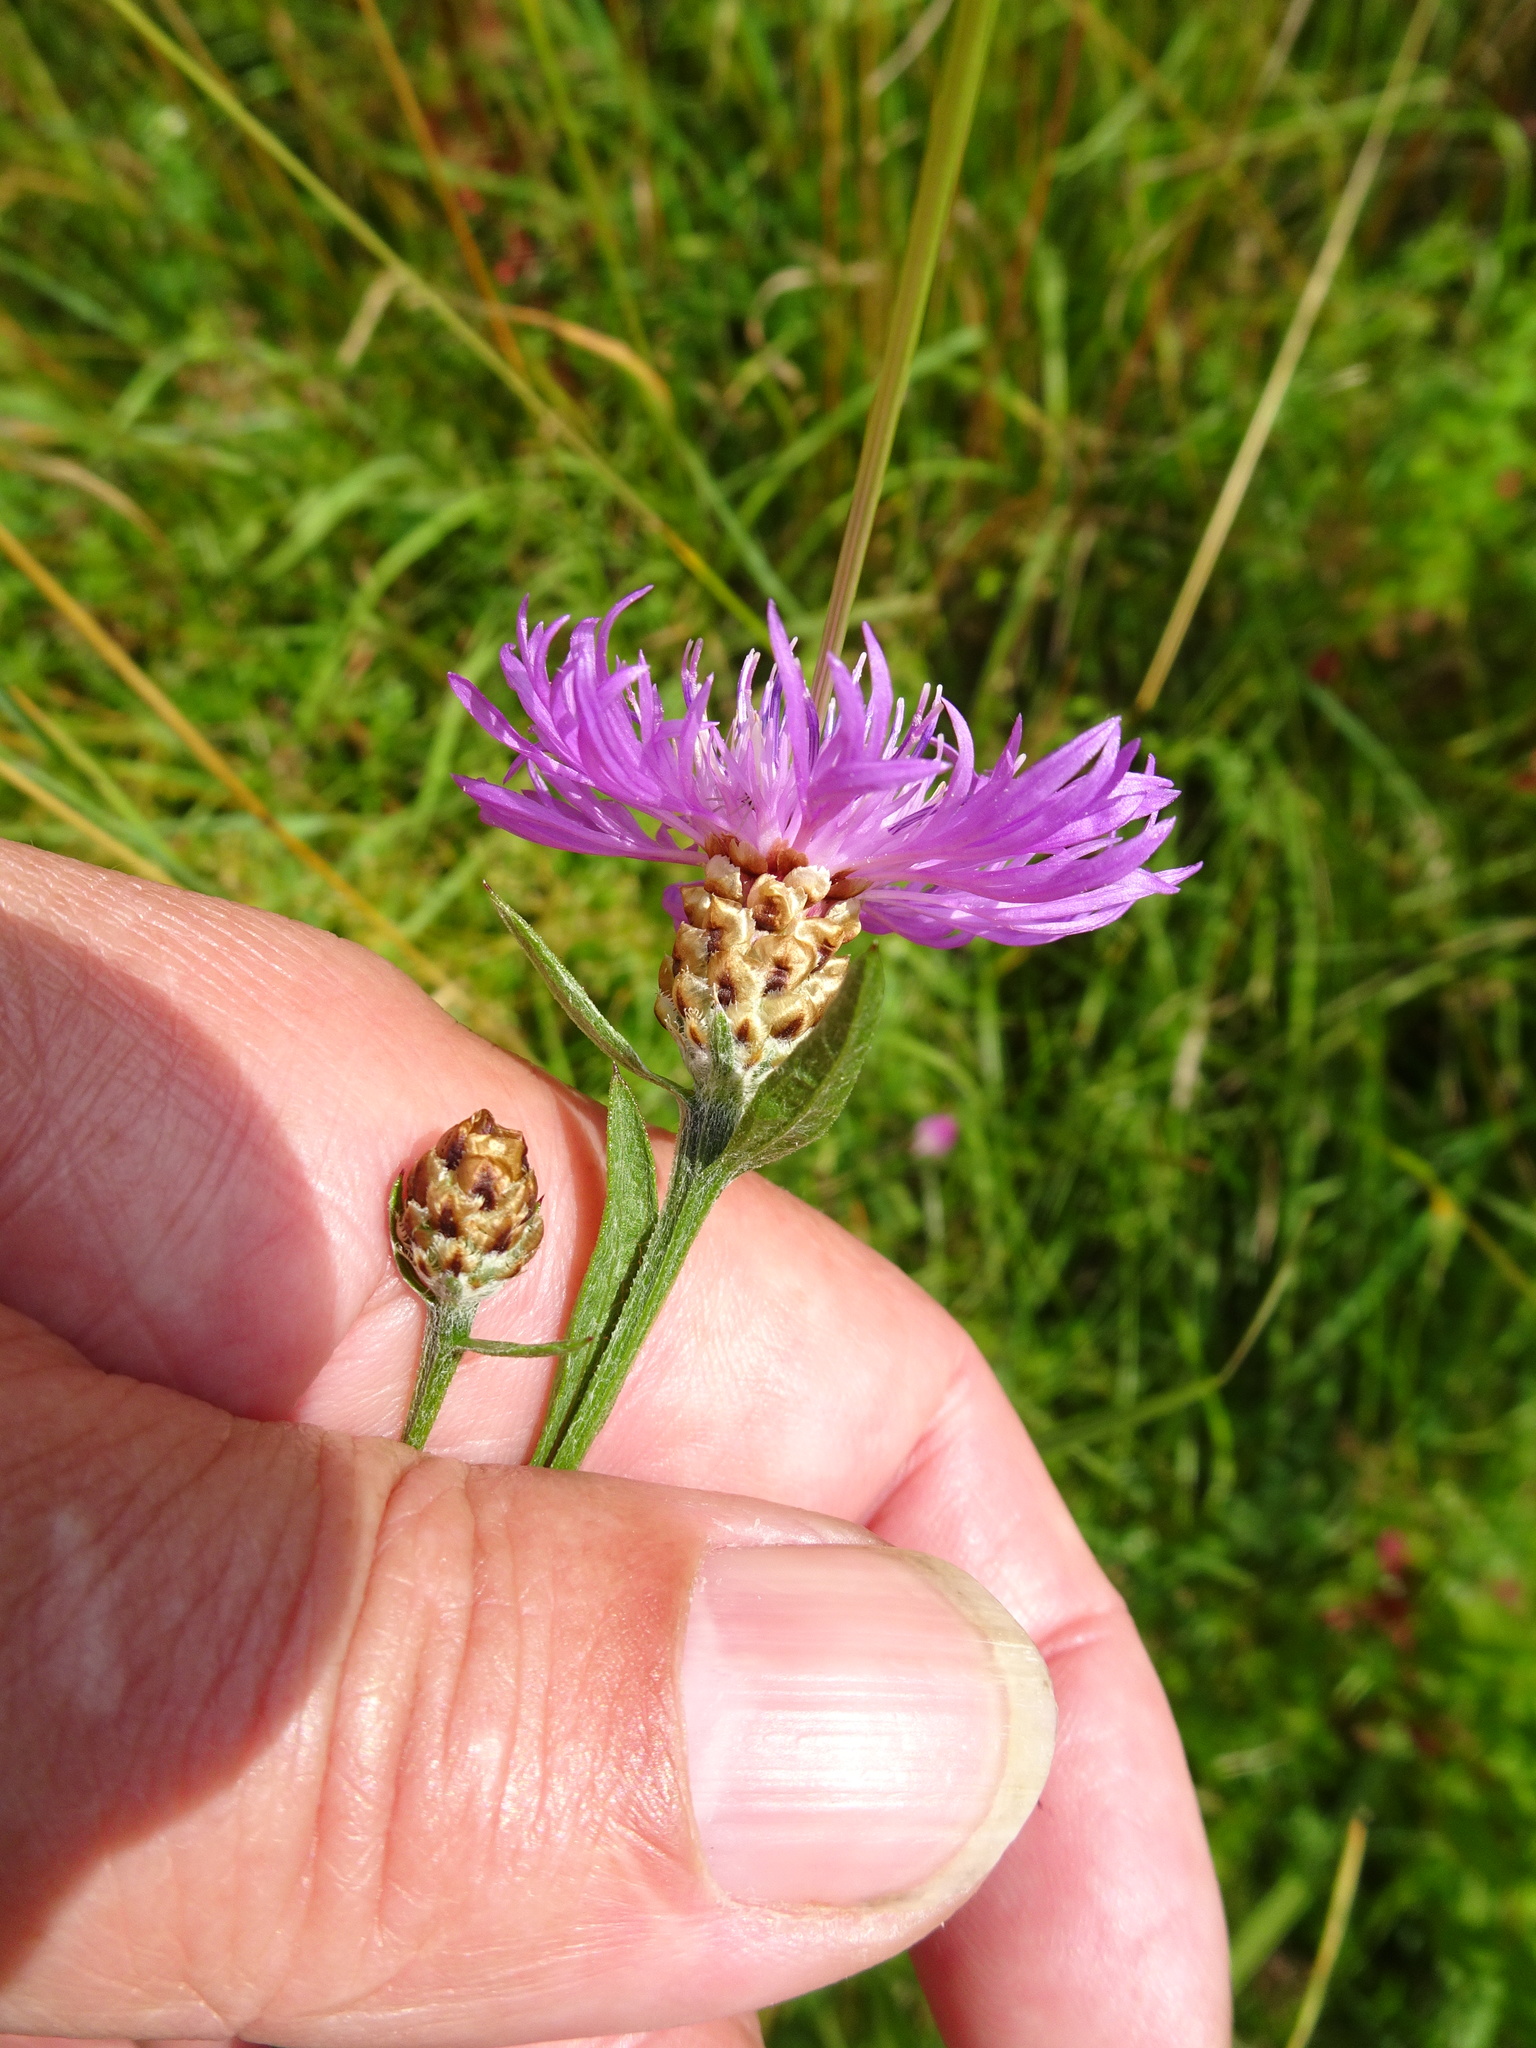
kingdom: Plantae
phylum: Tracheophyta
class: Magnoliopsida
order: Asterales
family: Asteraceae
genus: Centaurea
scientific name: Centaurea jacea
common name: Brown knapweed
